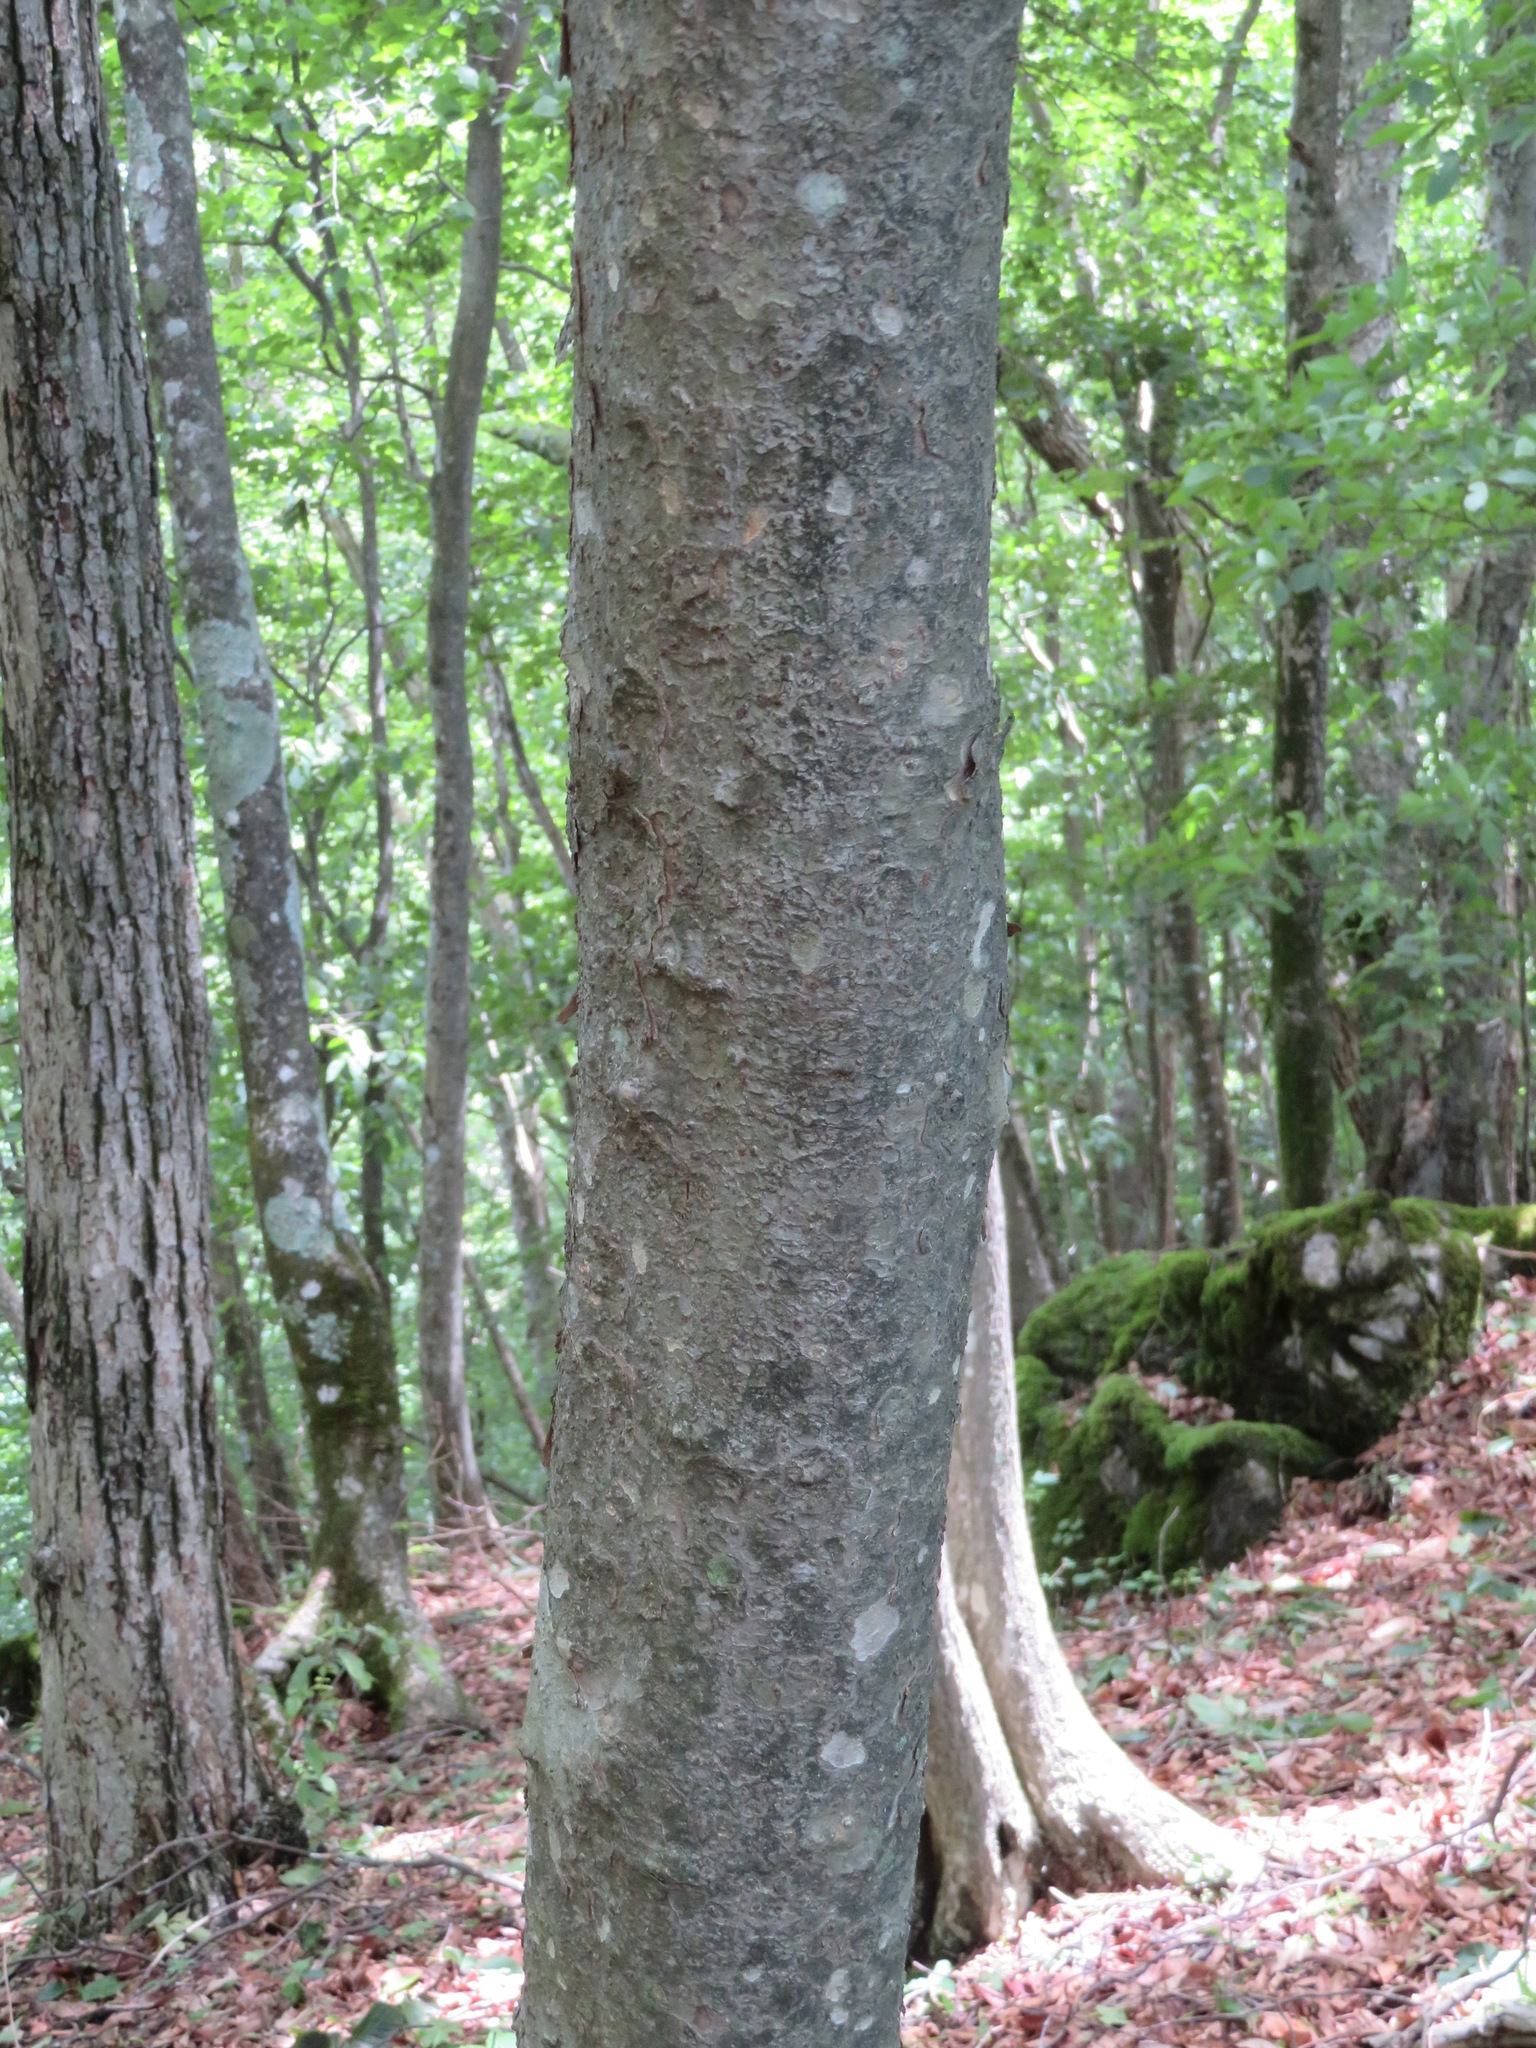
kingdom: Plantae
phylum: Tracheophyta
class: Magnoliopsida
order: Cornales
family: Cornaceae
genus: Cornus
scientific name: Cornus kousa
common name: Japanese dogwood
